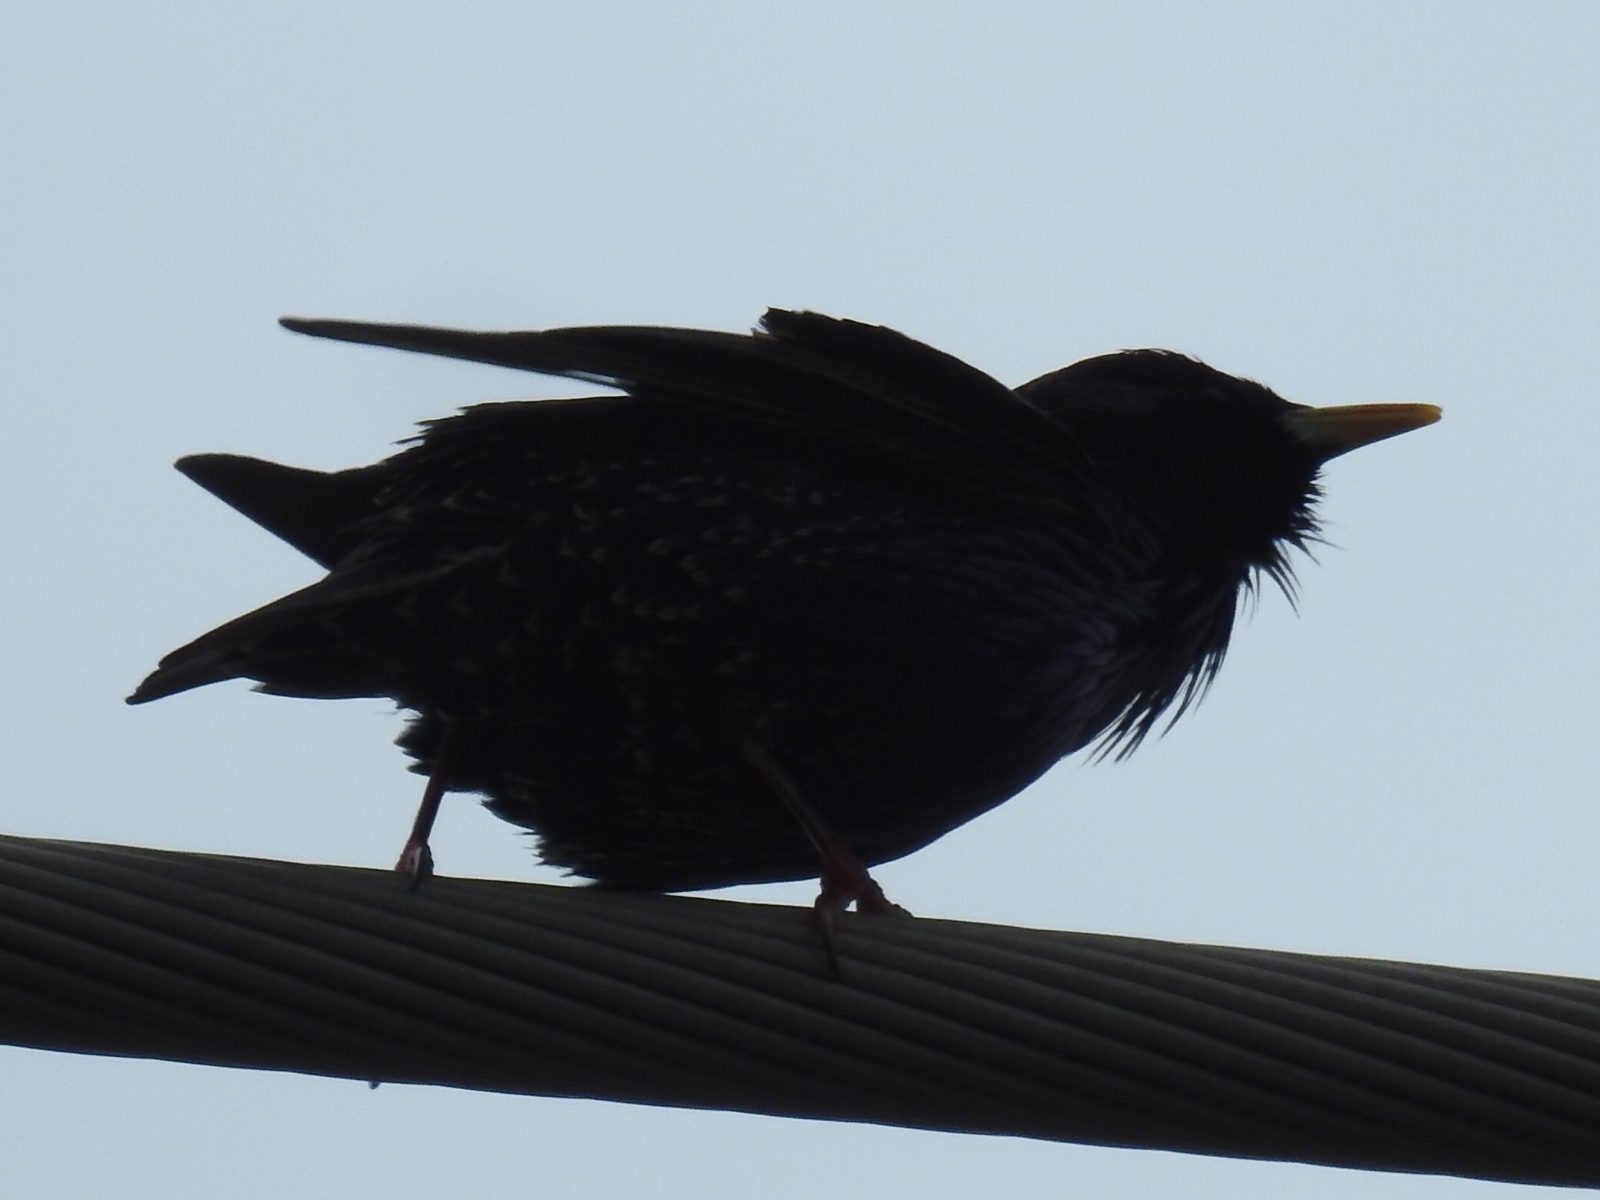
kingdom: Animalia
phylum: Chordata
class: Aves
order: Passeriformes
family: Sturnidae
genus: Sturnus
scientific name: Sturnus vulgaris
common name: Common starling
